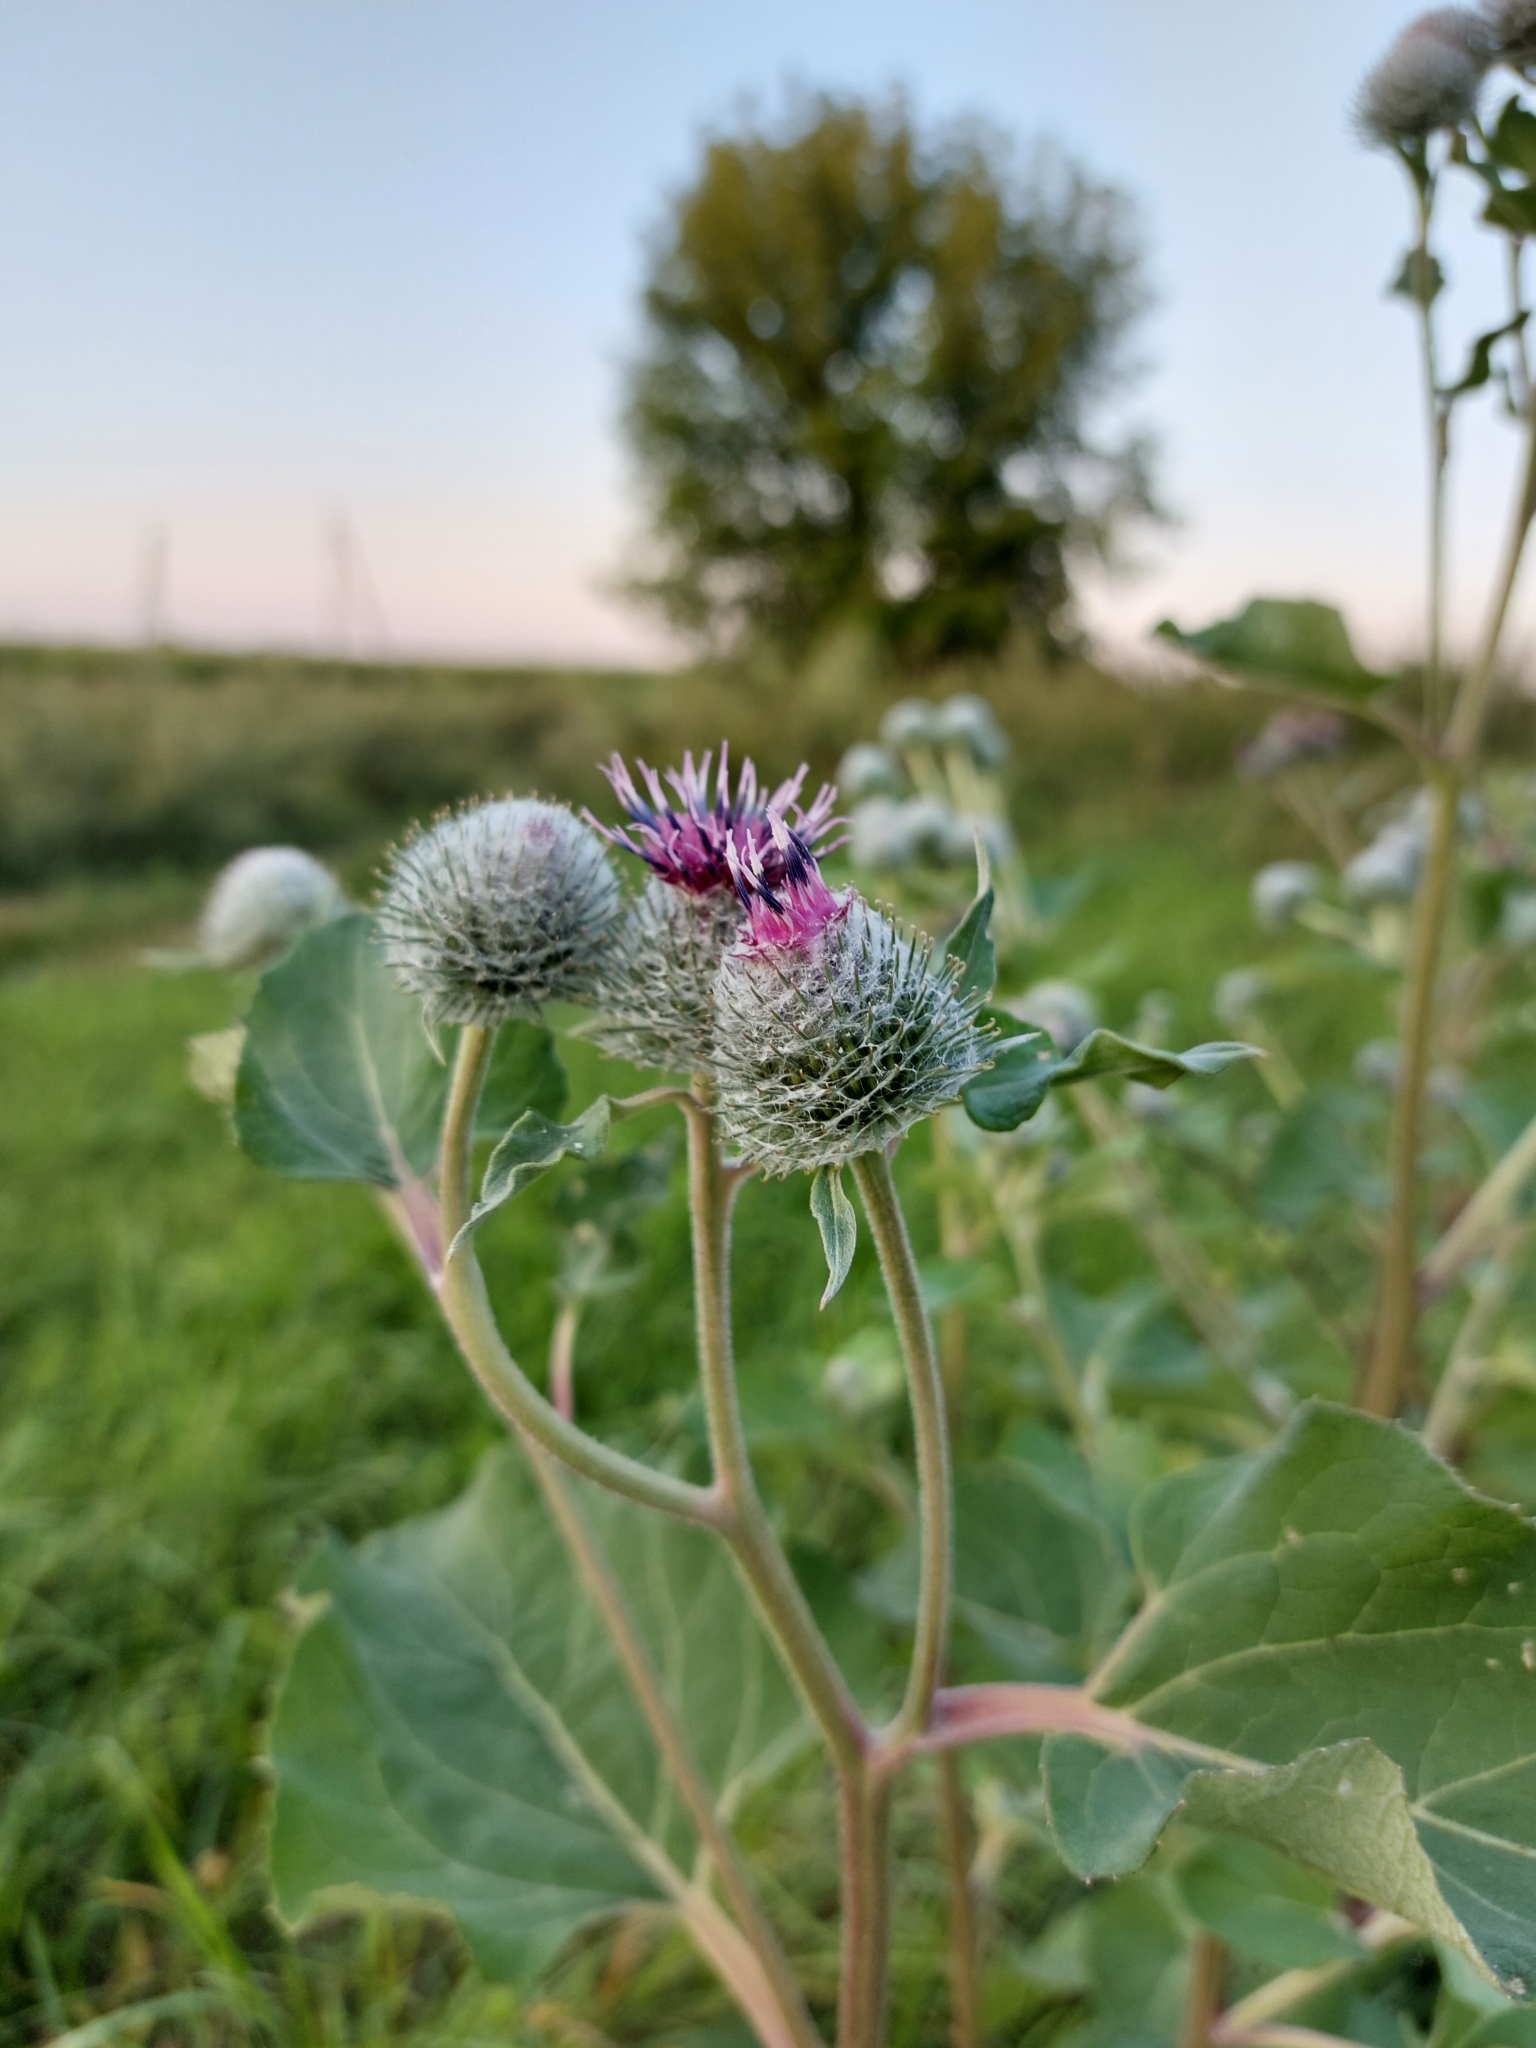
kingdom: Plantae
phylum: Tracheophyta
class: Magnoliopsida
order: Asterales
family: Asteraceae
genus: Arctium
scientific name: Arctium tomentosum
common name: Woolly burdock
